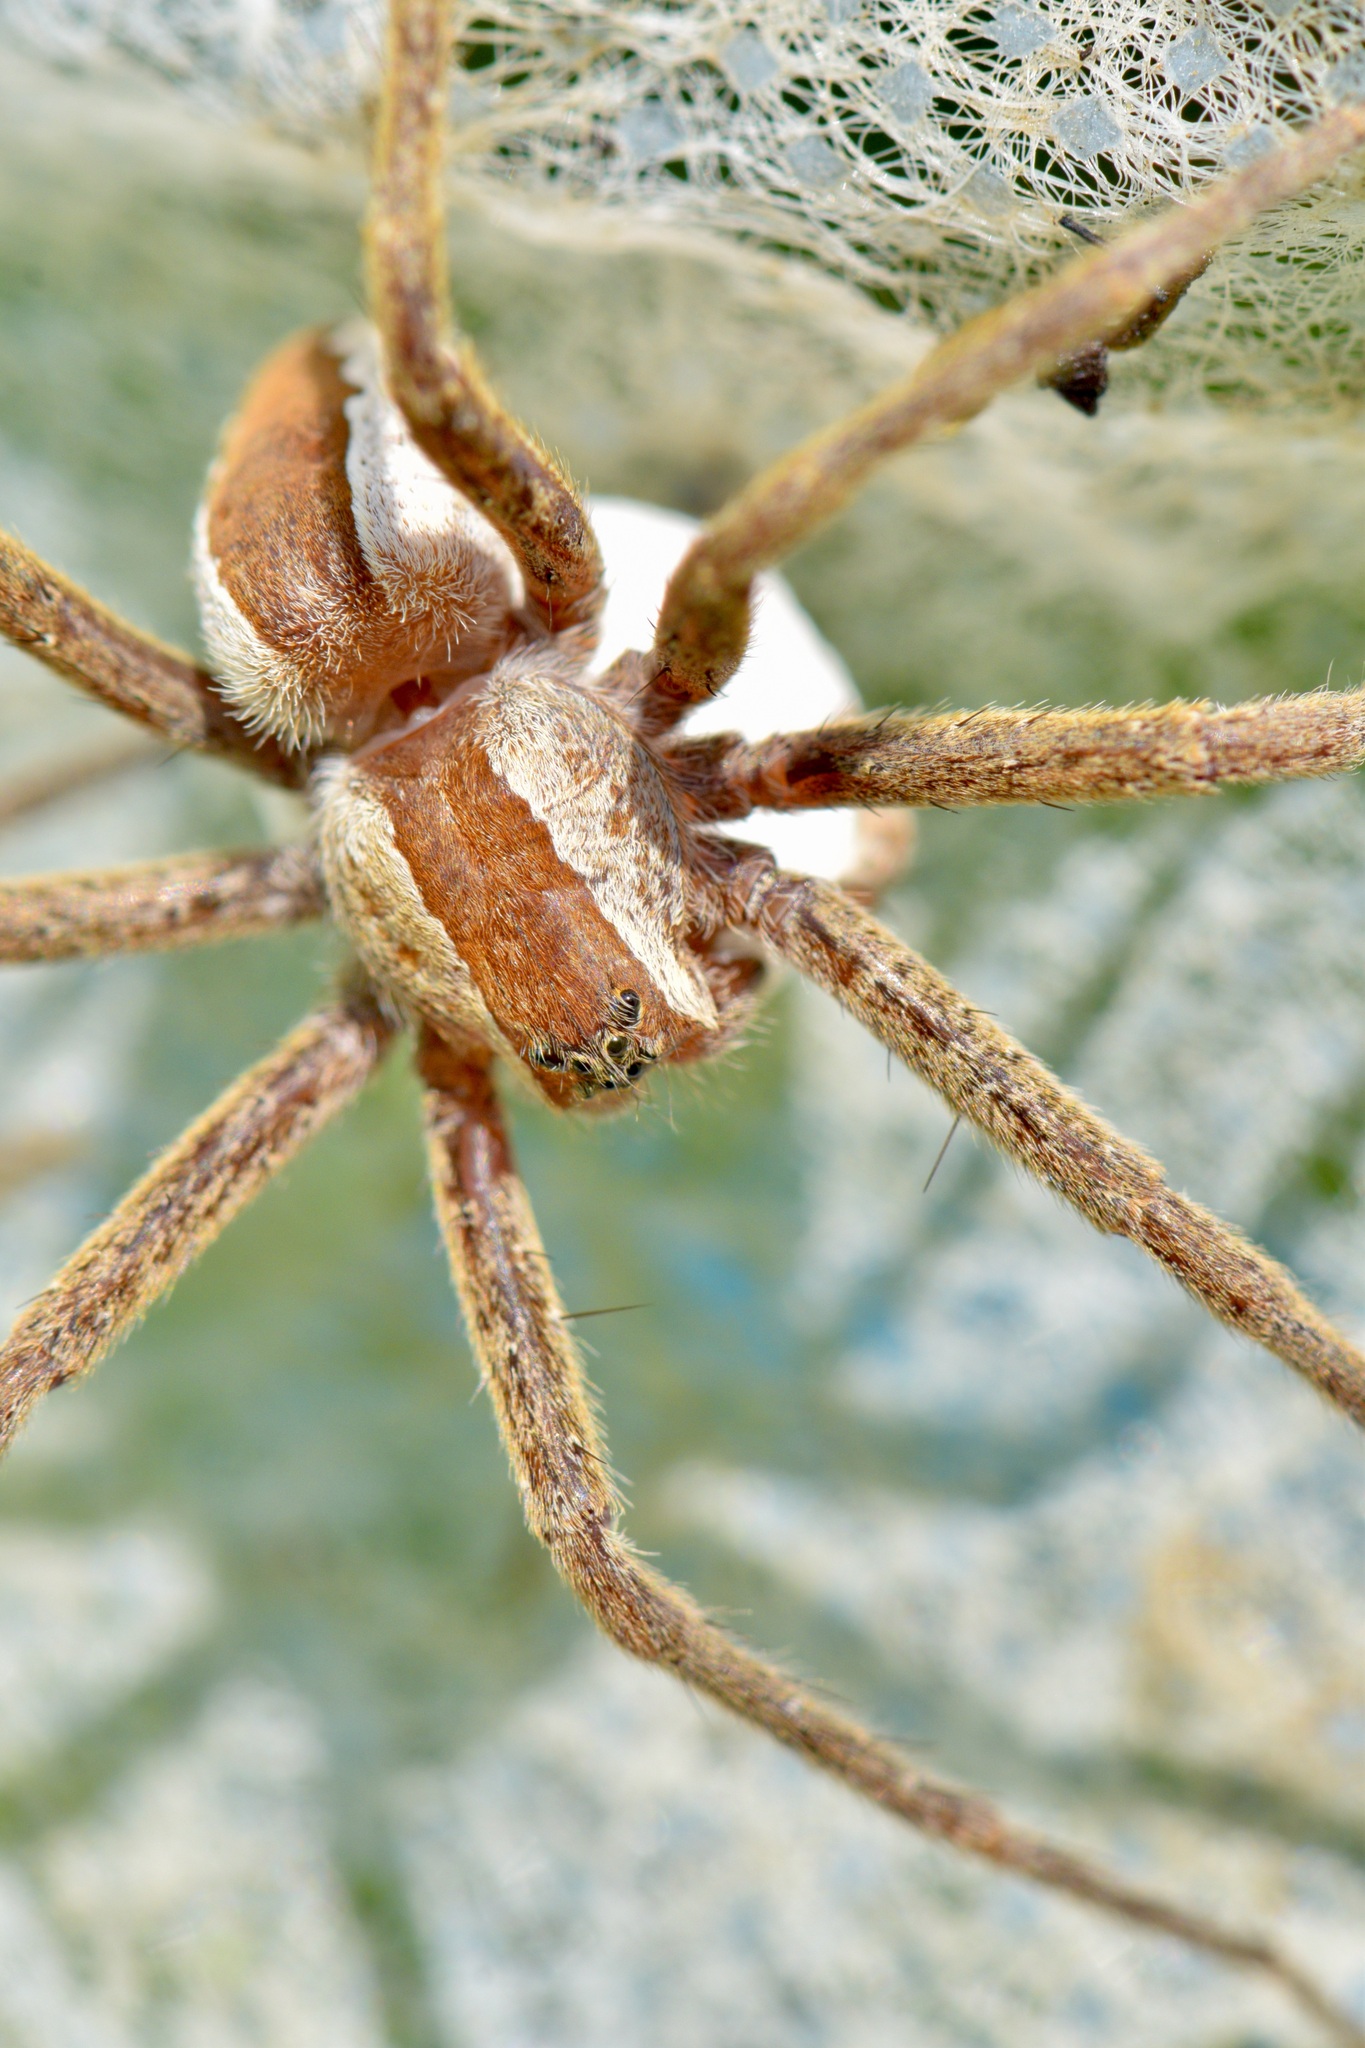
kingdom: Animalia
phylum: Arthropoda
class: Arachnida
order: Araneae
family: Pisauridae
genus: Pisaurina
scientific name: Pisaurina mira
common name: American nursery web spider
